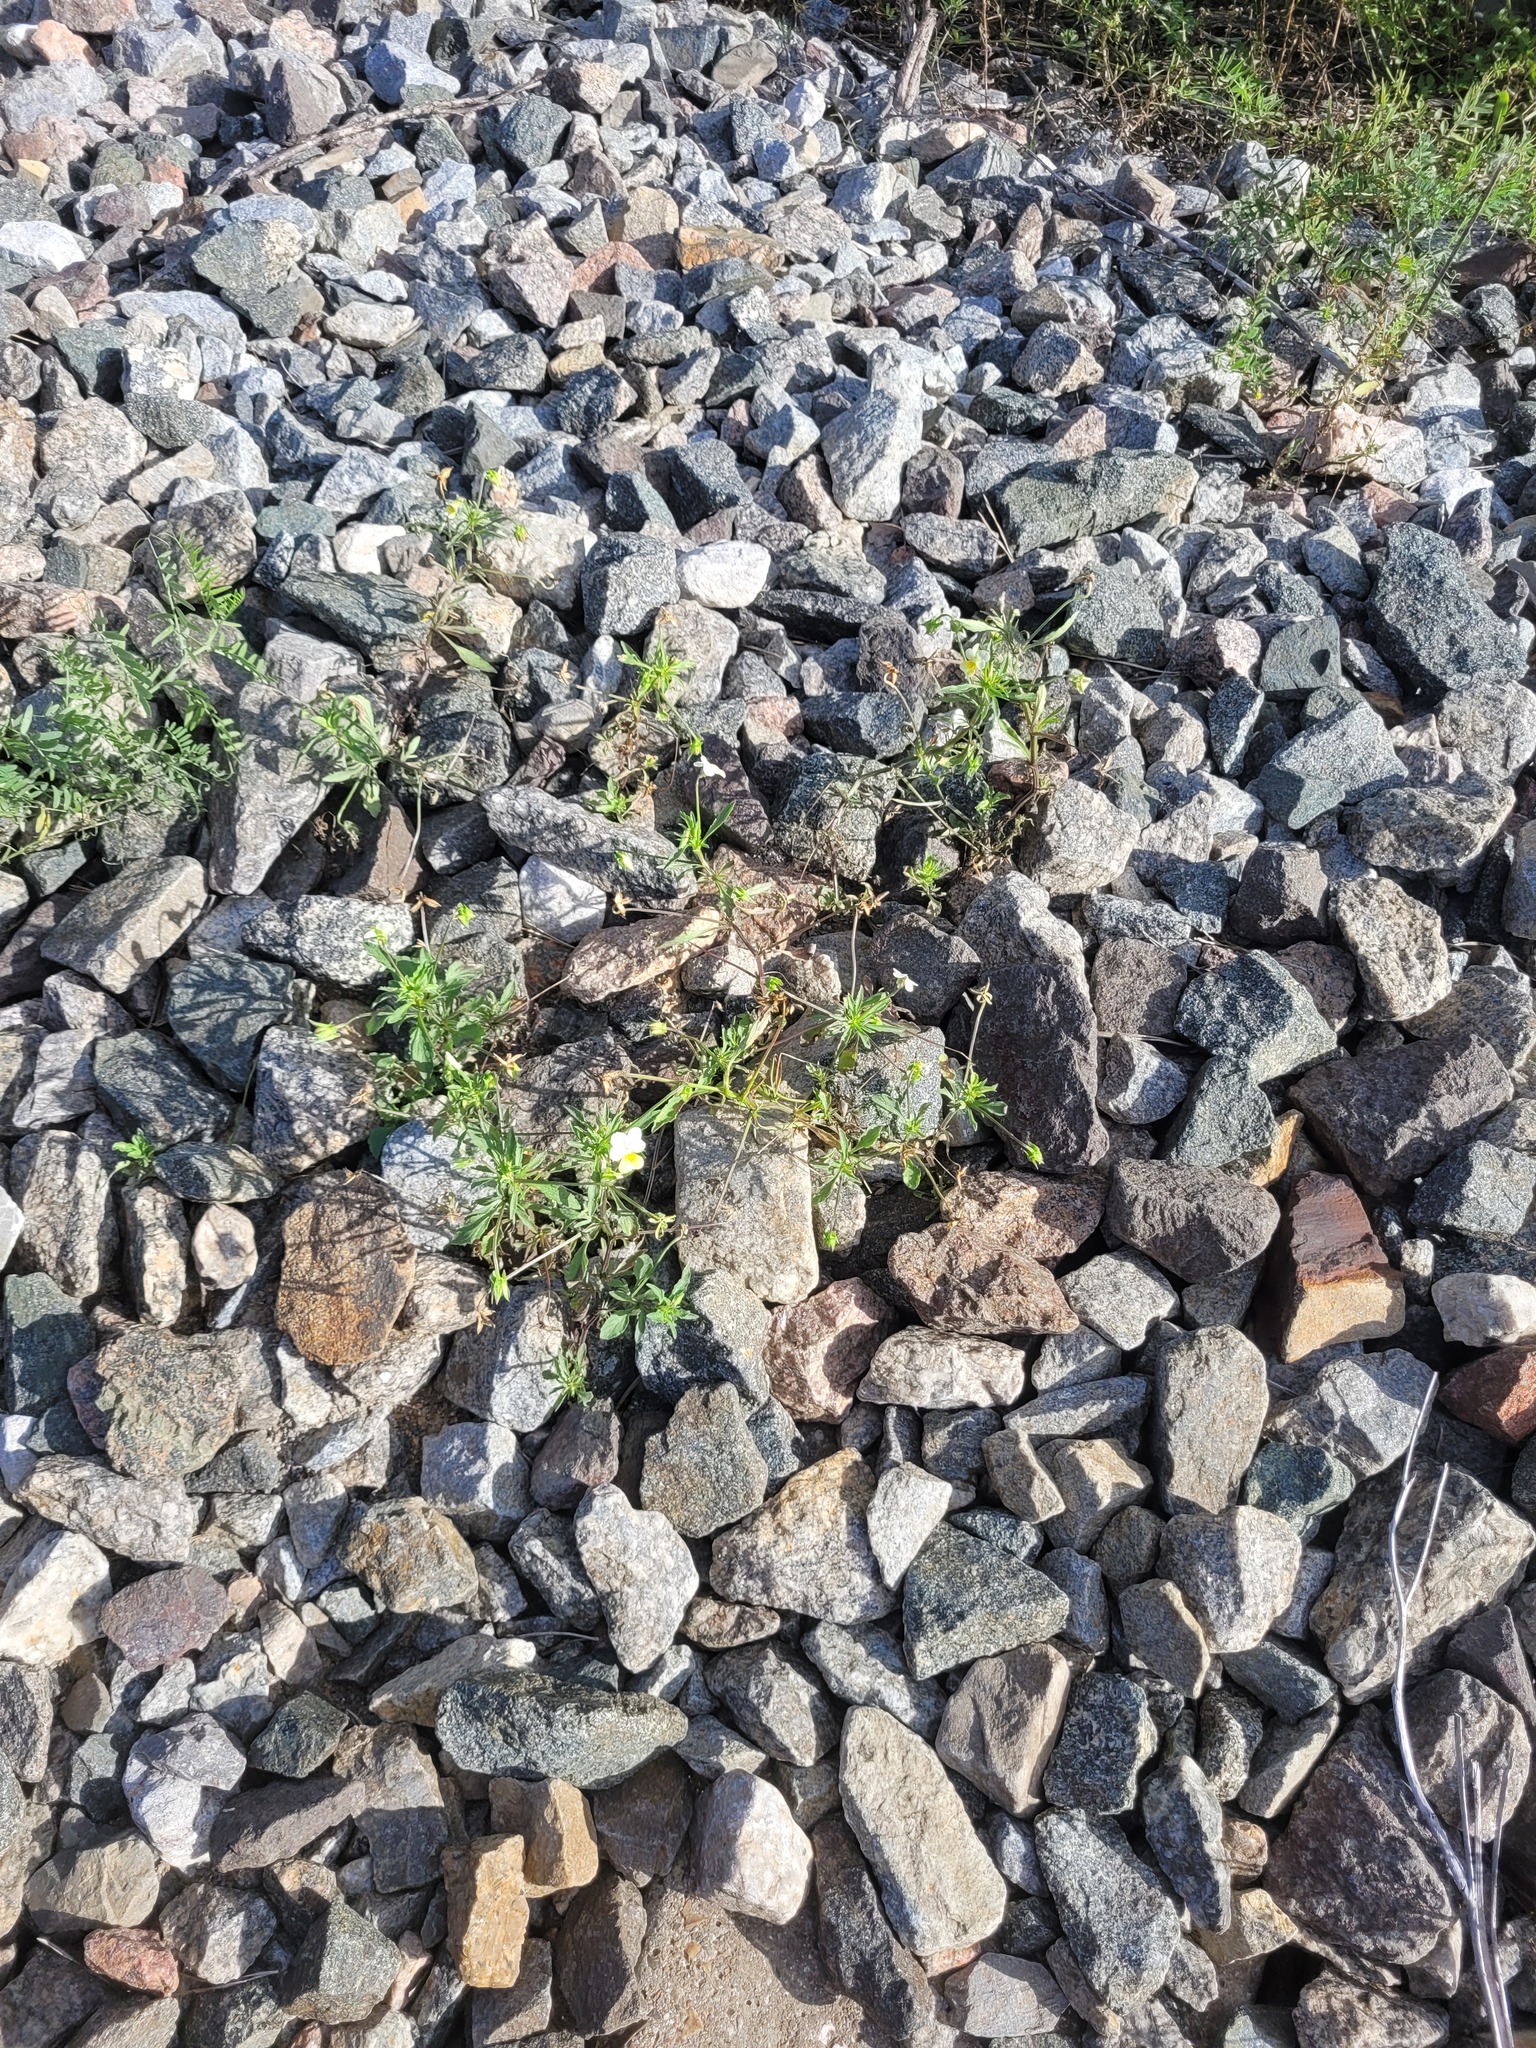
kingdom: Plantae
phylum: Tracheophyta
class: Magnoliopsida
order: Malpighiales
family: Violaceae
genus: Viola
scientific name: Viola arvensis
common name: Field pansy
